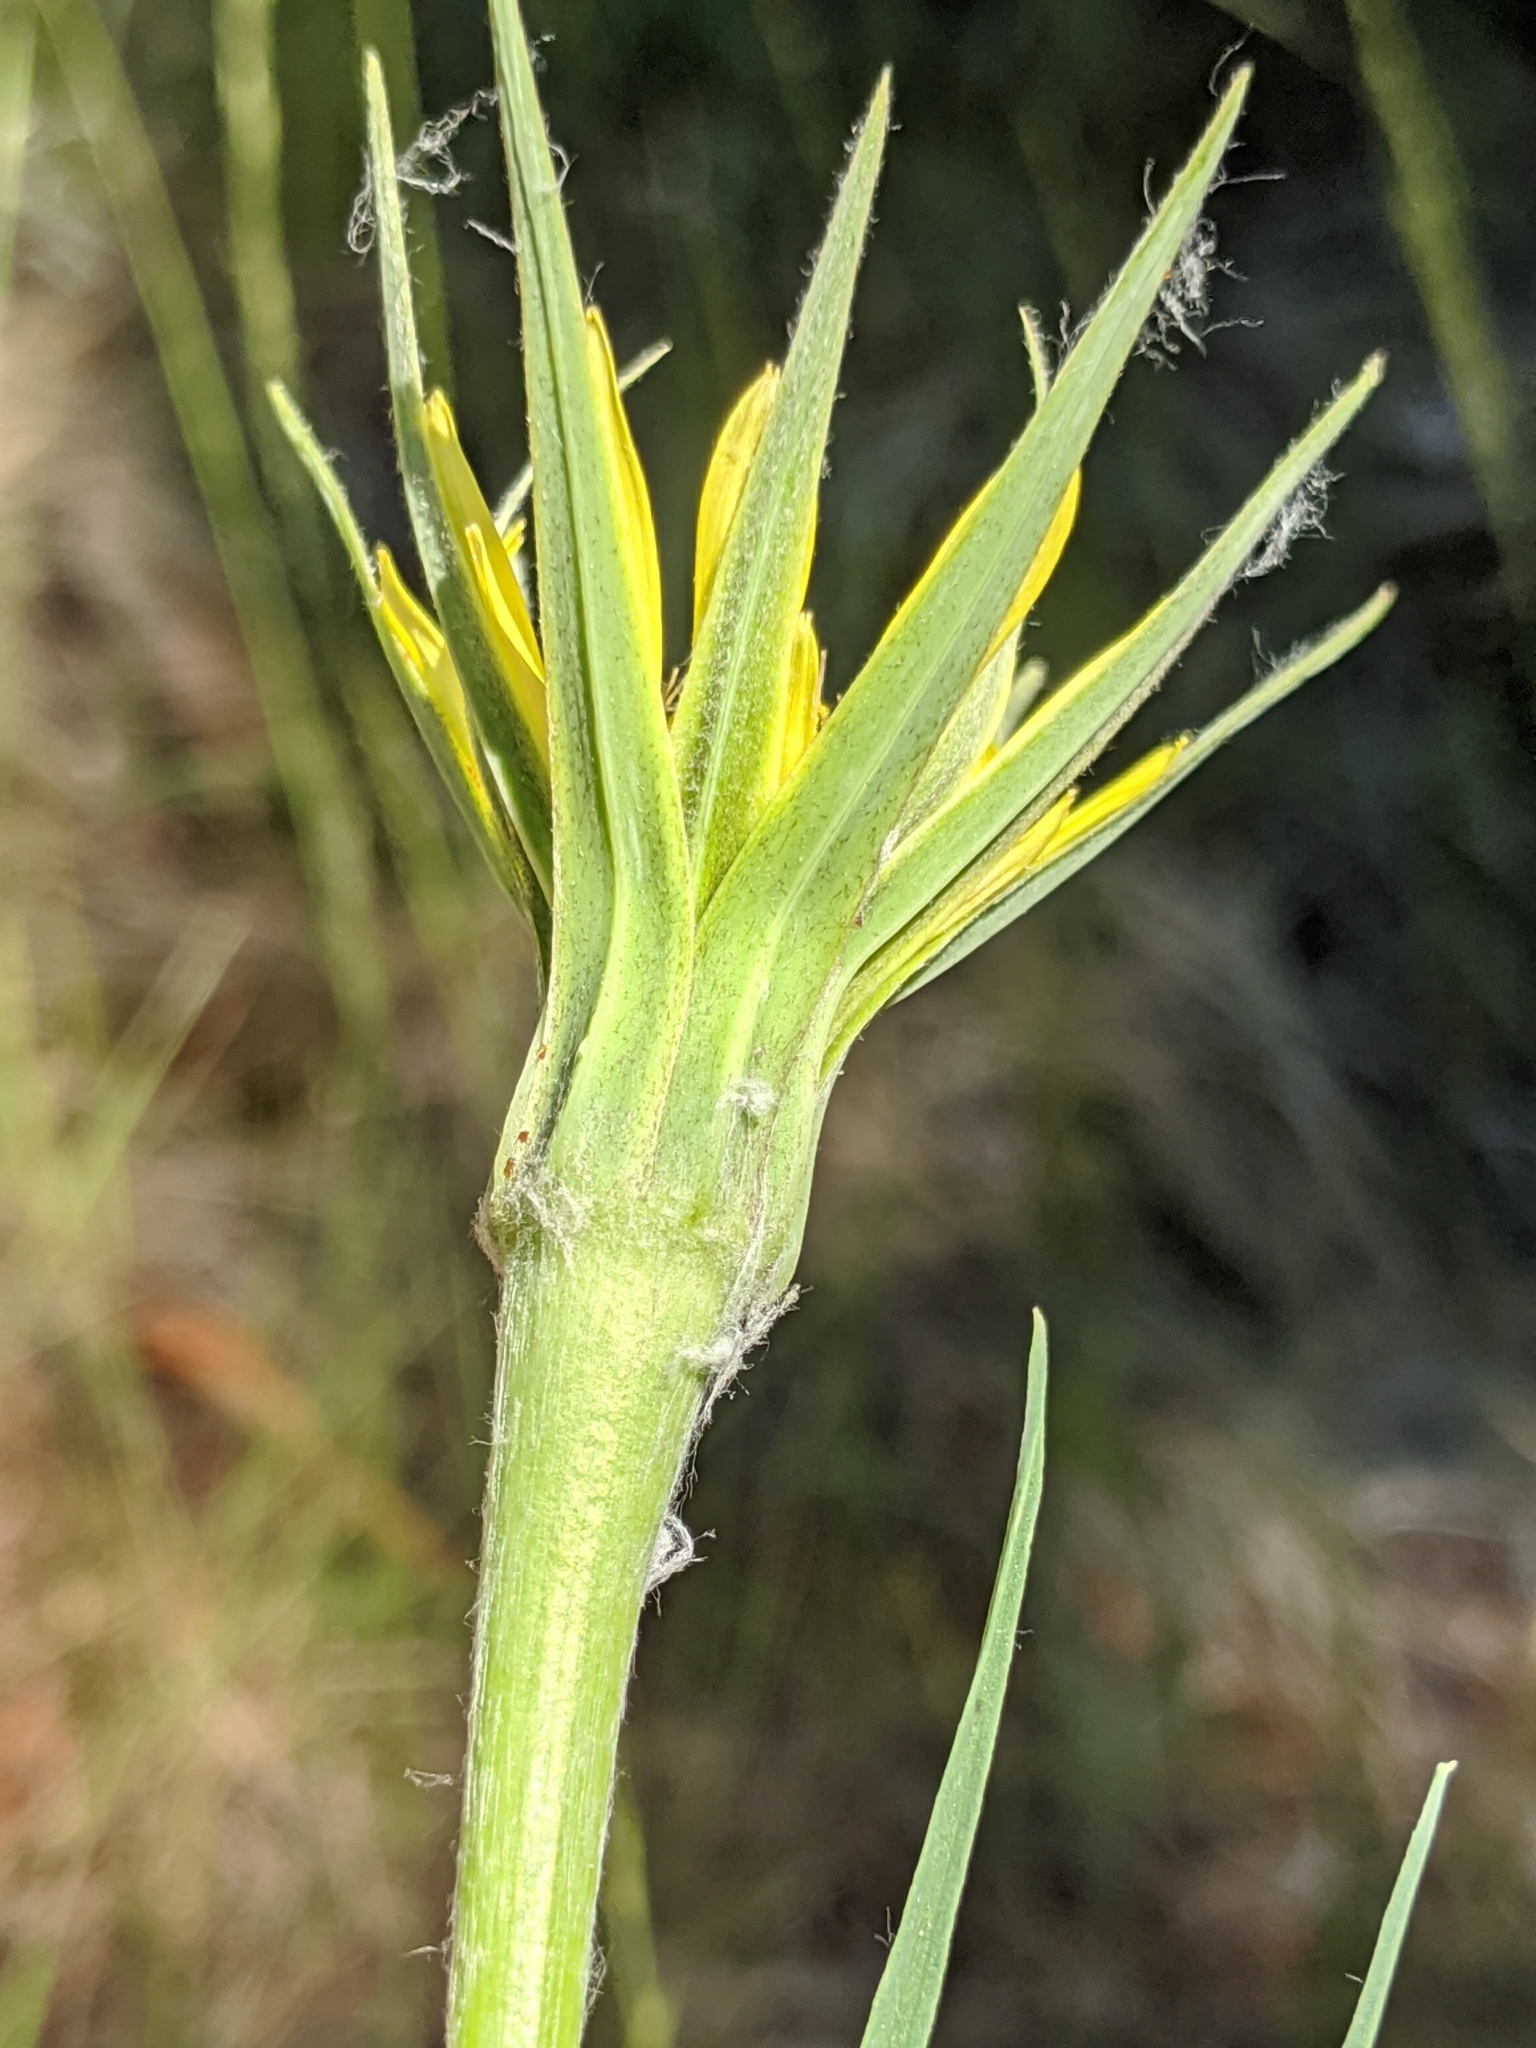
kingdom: Plantae
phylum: Tracheophyta
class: Magnoliopsida
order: Asterales
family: Asteraceae
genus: Tragopogon
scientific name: Tragopogon dubius
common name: Yellow salsify
